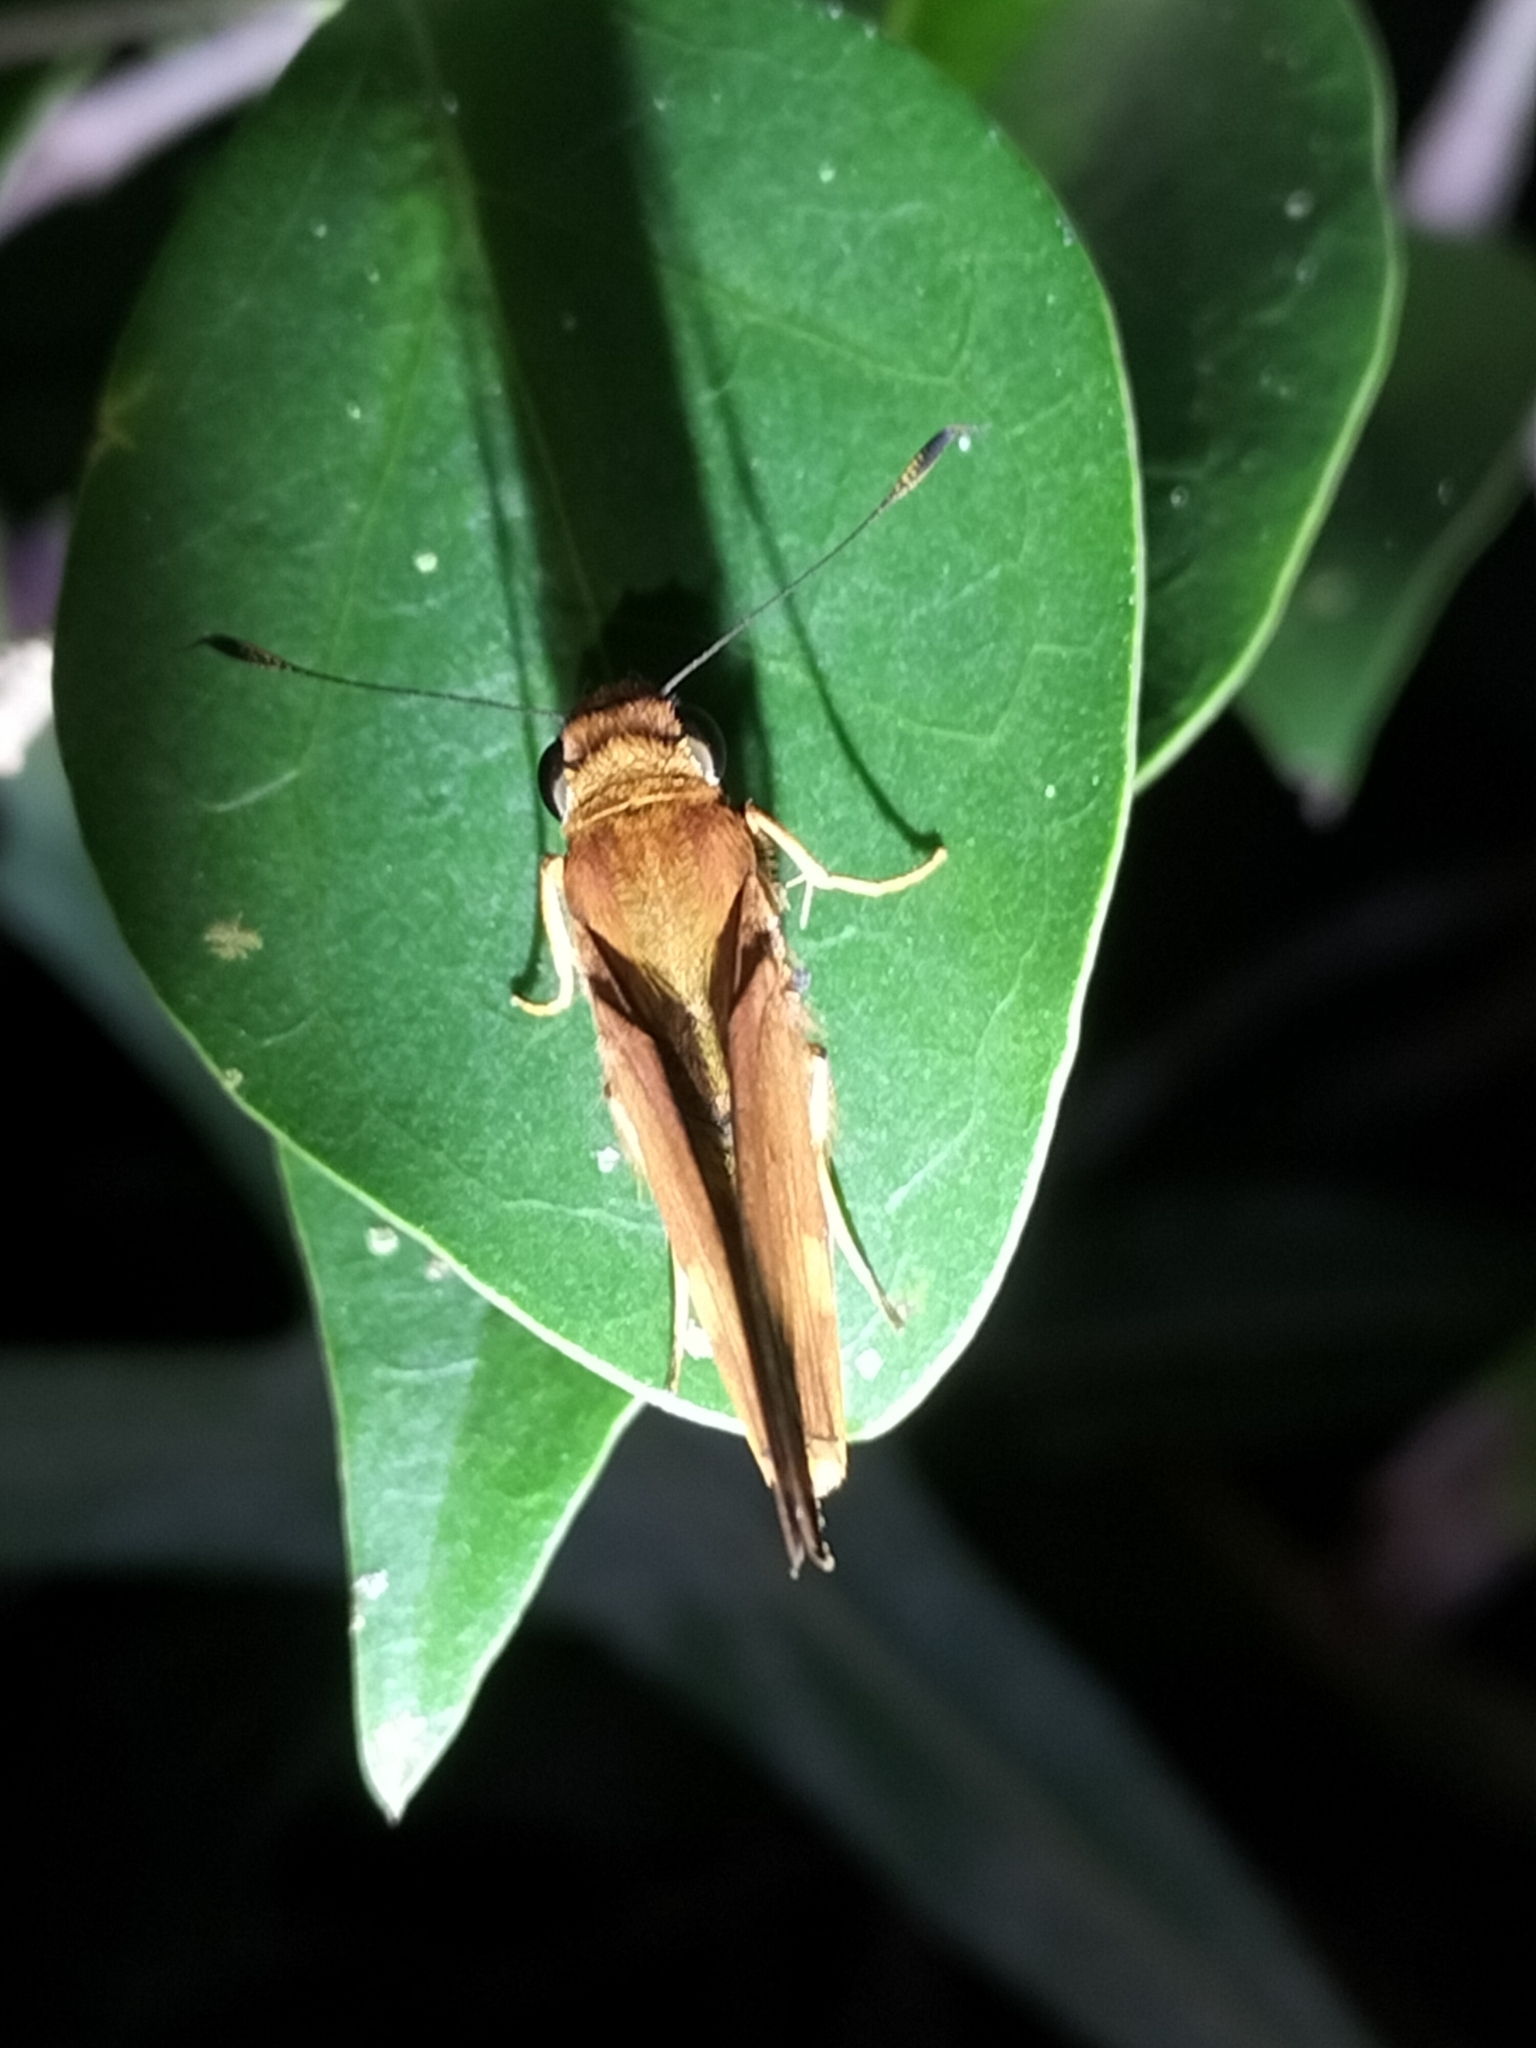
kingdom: Animalia
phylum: Arthropoda
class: Insecta
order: Lepidoptera
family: Hesperiidae
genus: Cephrenes
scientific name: Cephrenes augiades
